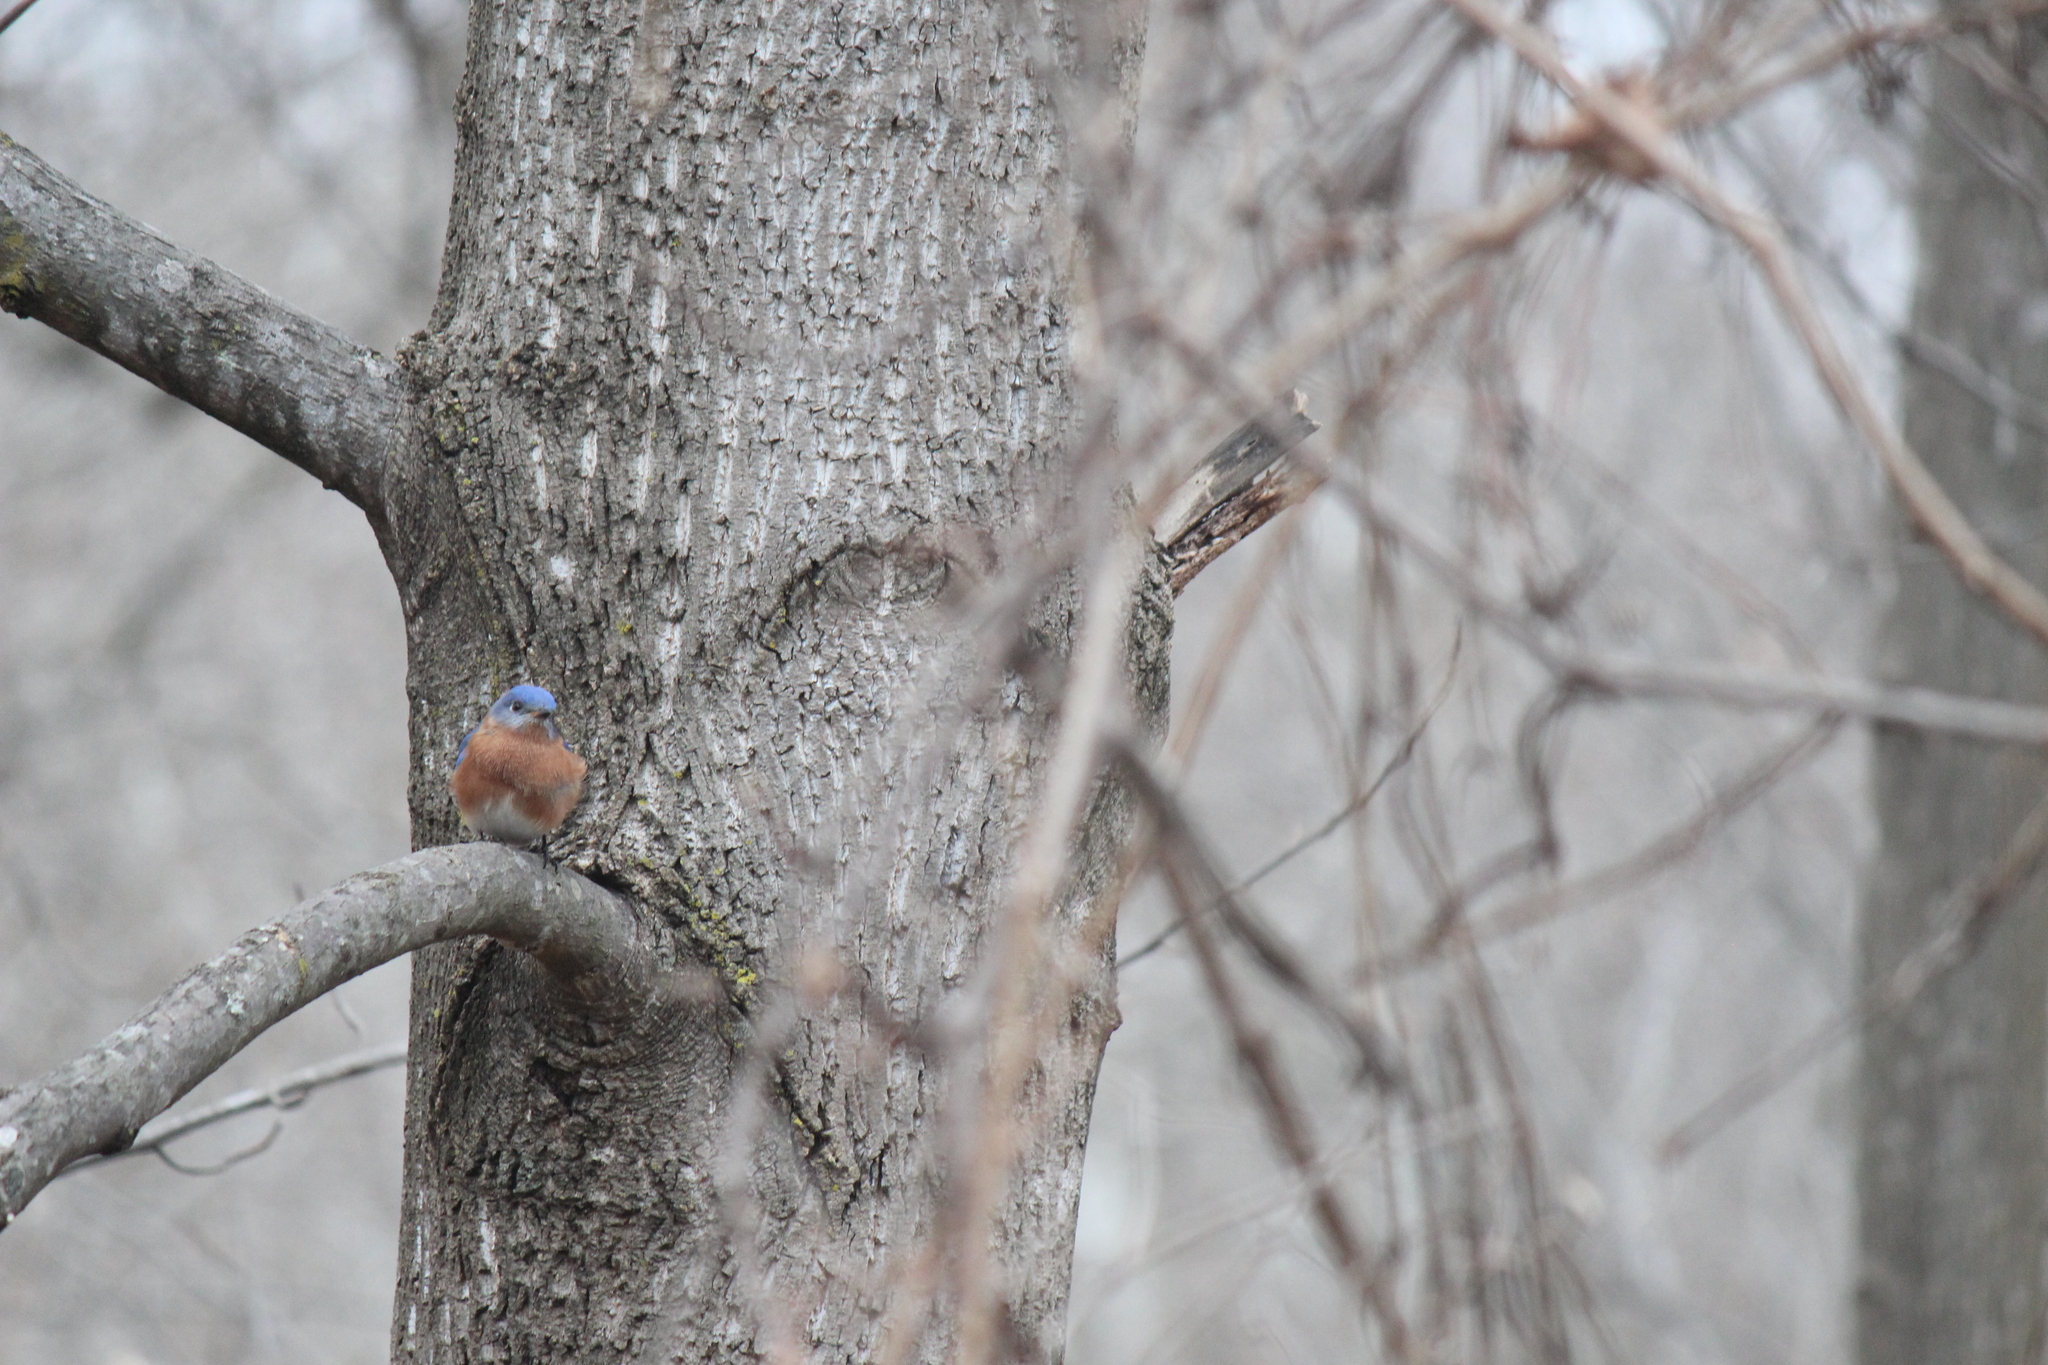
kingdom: Animalia
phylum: Chordata
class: Aves
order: Passeriformes
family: Turdidae
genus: Sialia
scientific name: Sialia sialis
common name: Eastern bluebird
